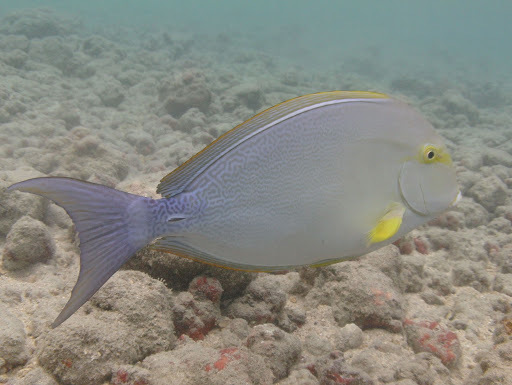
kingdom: Animalia
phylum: Chordata
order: Perciformes
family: Acanthuridae
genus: Acanthurus
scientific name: Acanthurus xanthopterus
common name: Cuvier's surgeonfish
